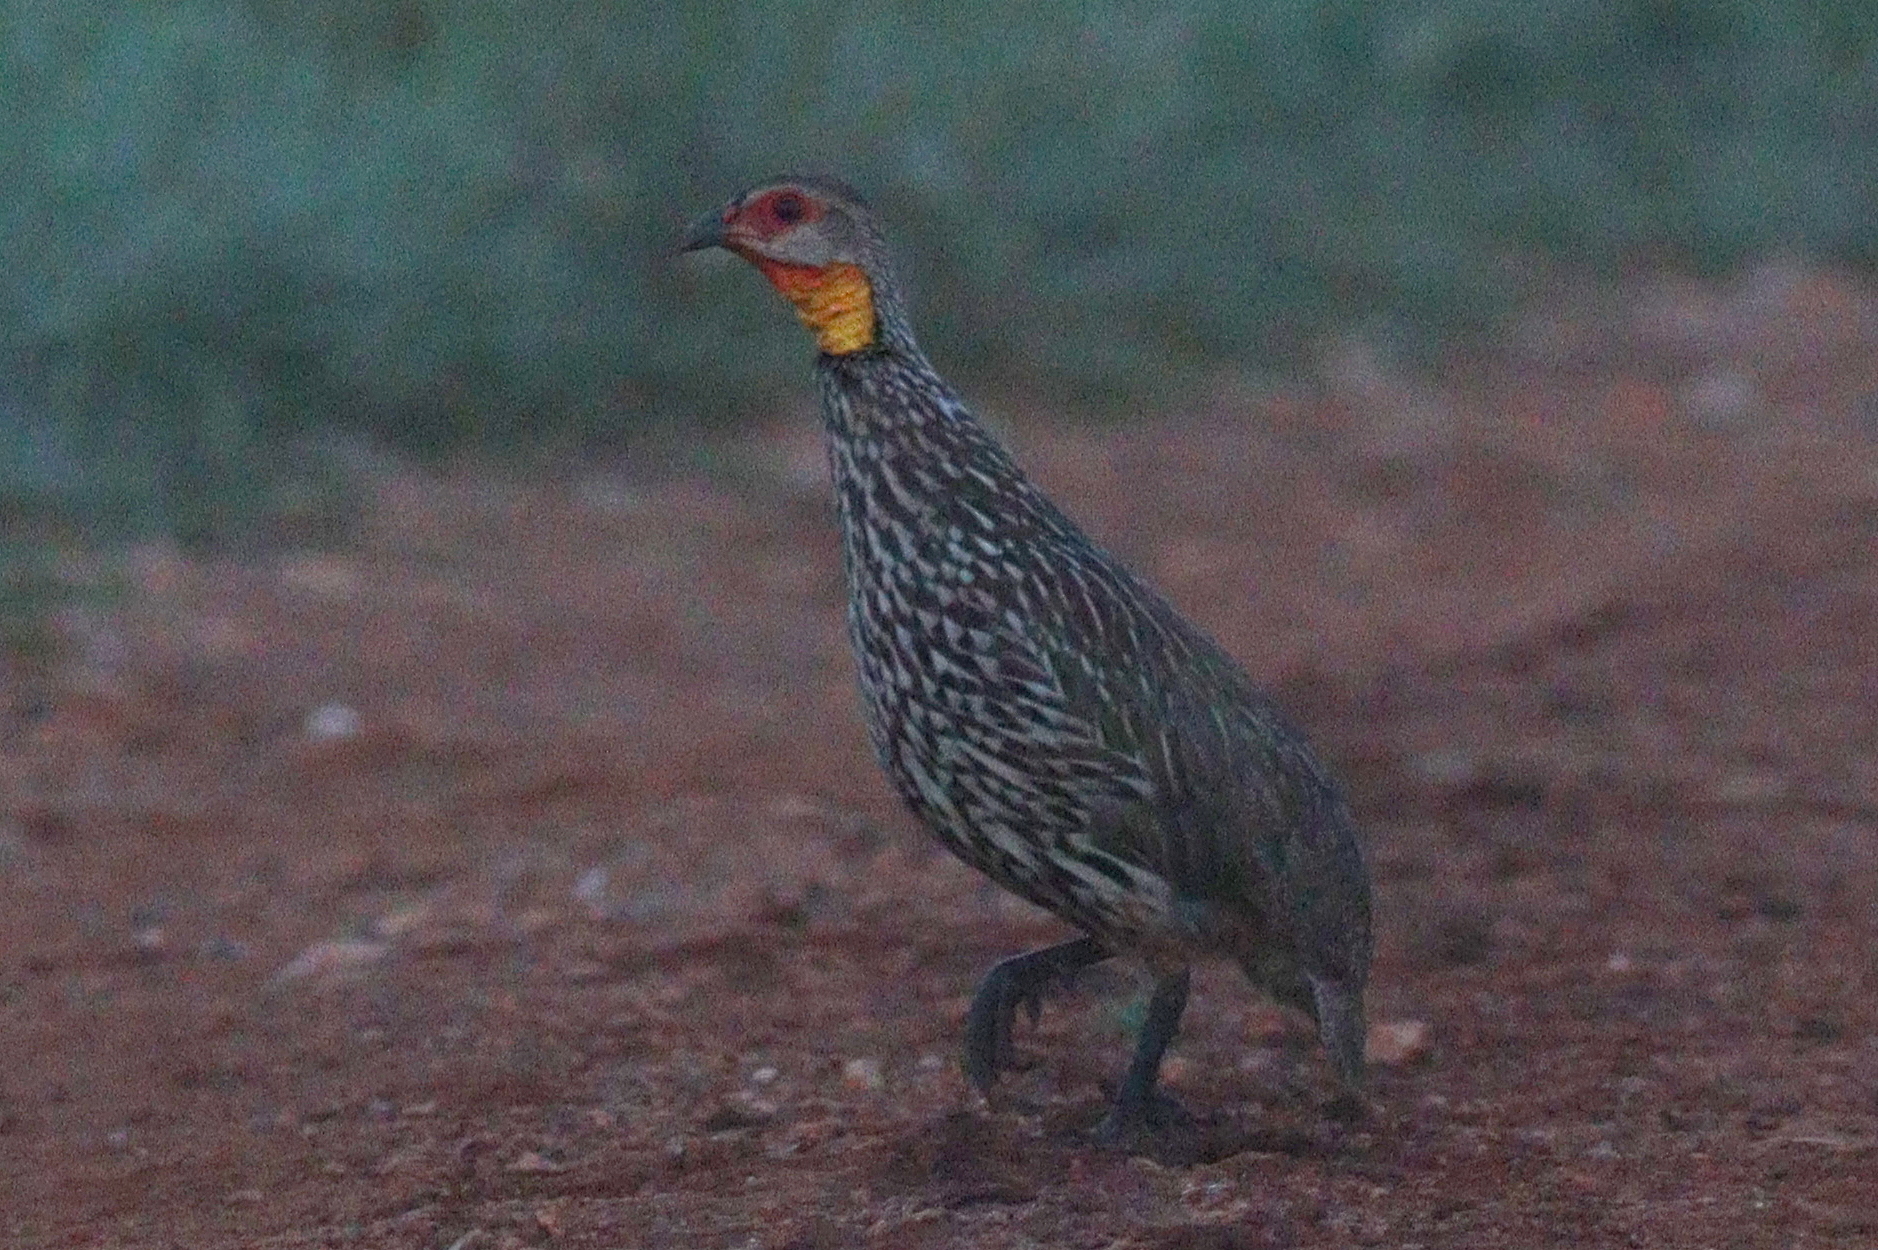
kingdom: Animalia
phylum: Chordata
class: Aves
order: Galliformes
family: Phasianidae
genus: Pternistis
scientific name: Pternistis leucoscepus
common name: Yellow-necked spurfowl
